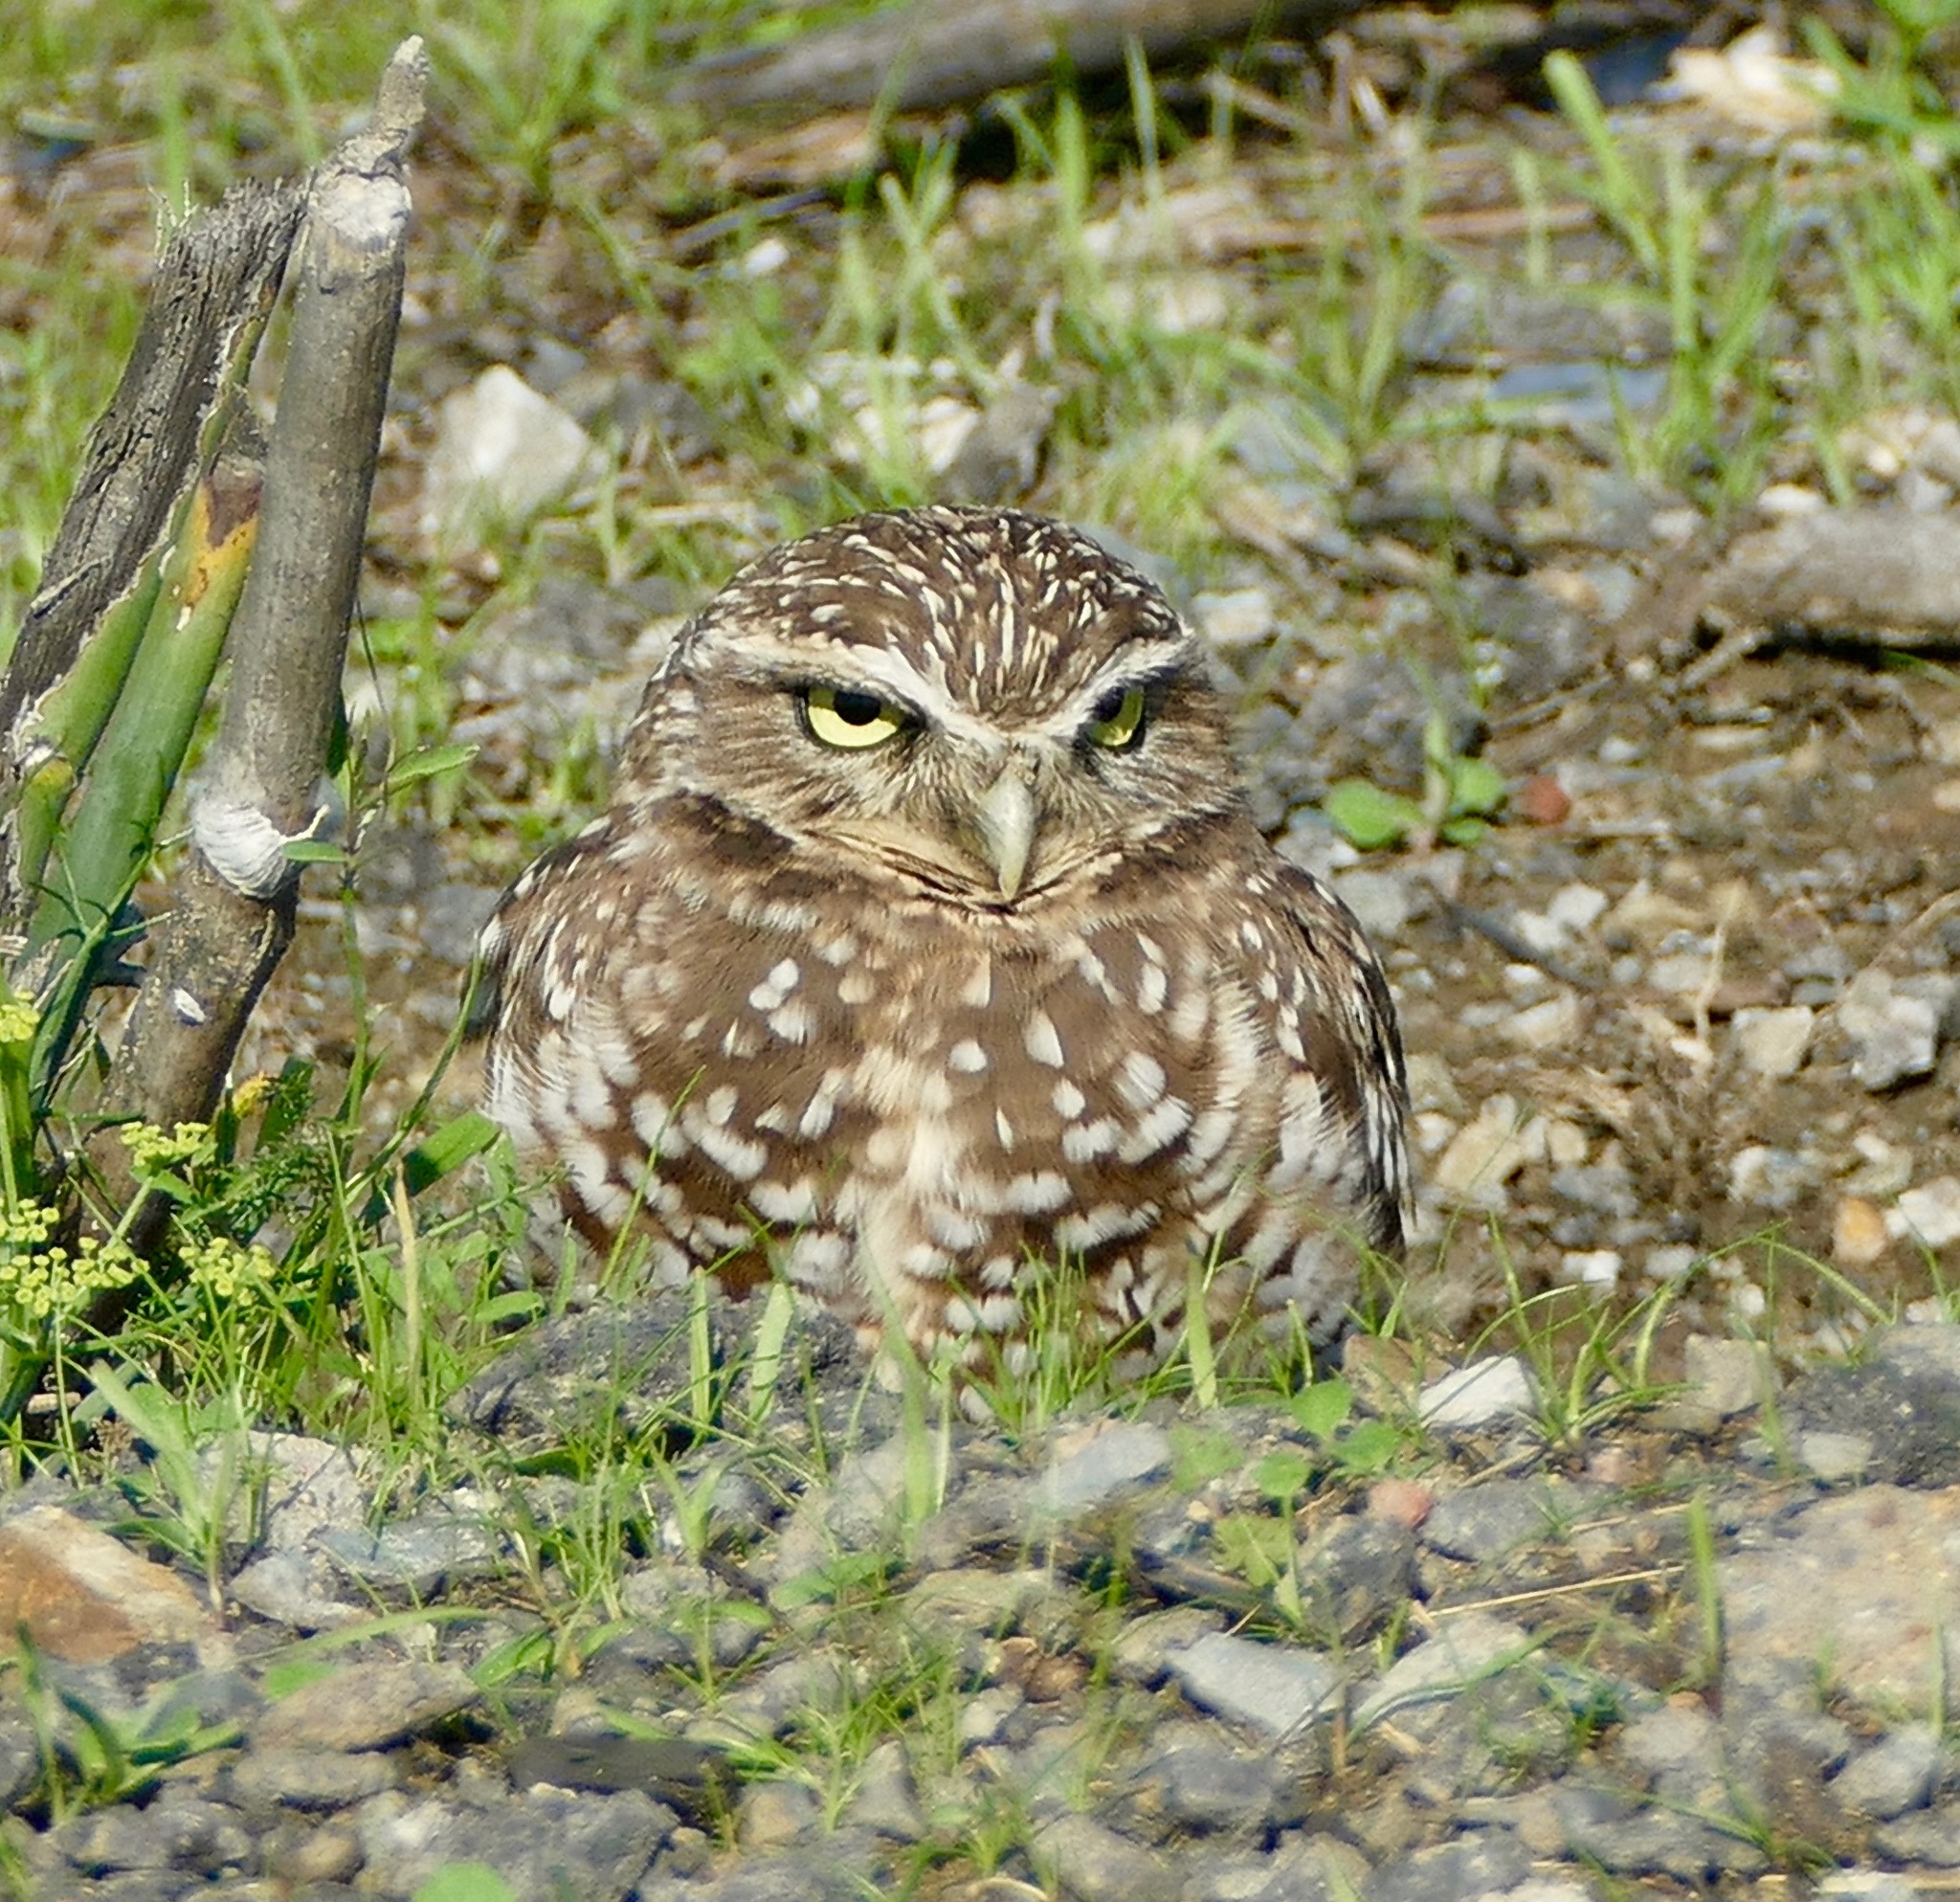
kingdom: Animalia
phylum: Chordata
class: Aves
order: Strigiformes
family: Strigidae
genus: Athene
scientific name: Athene cunicularia
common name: Burrowing owl
